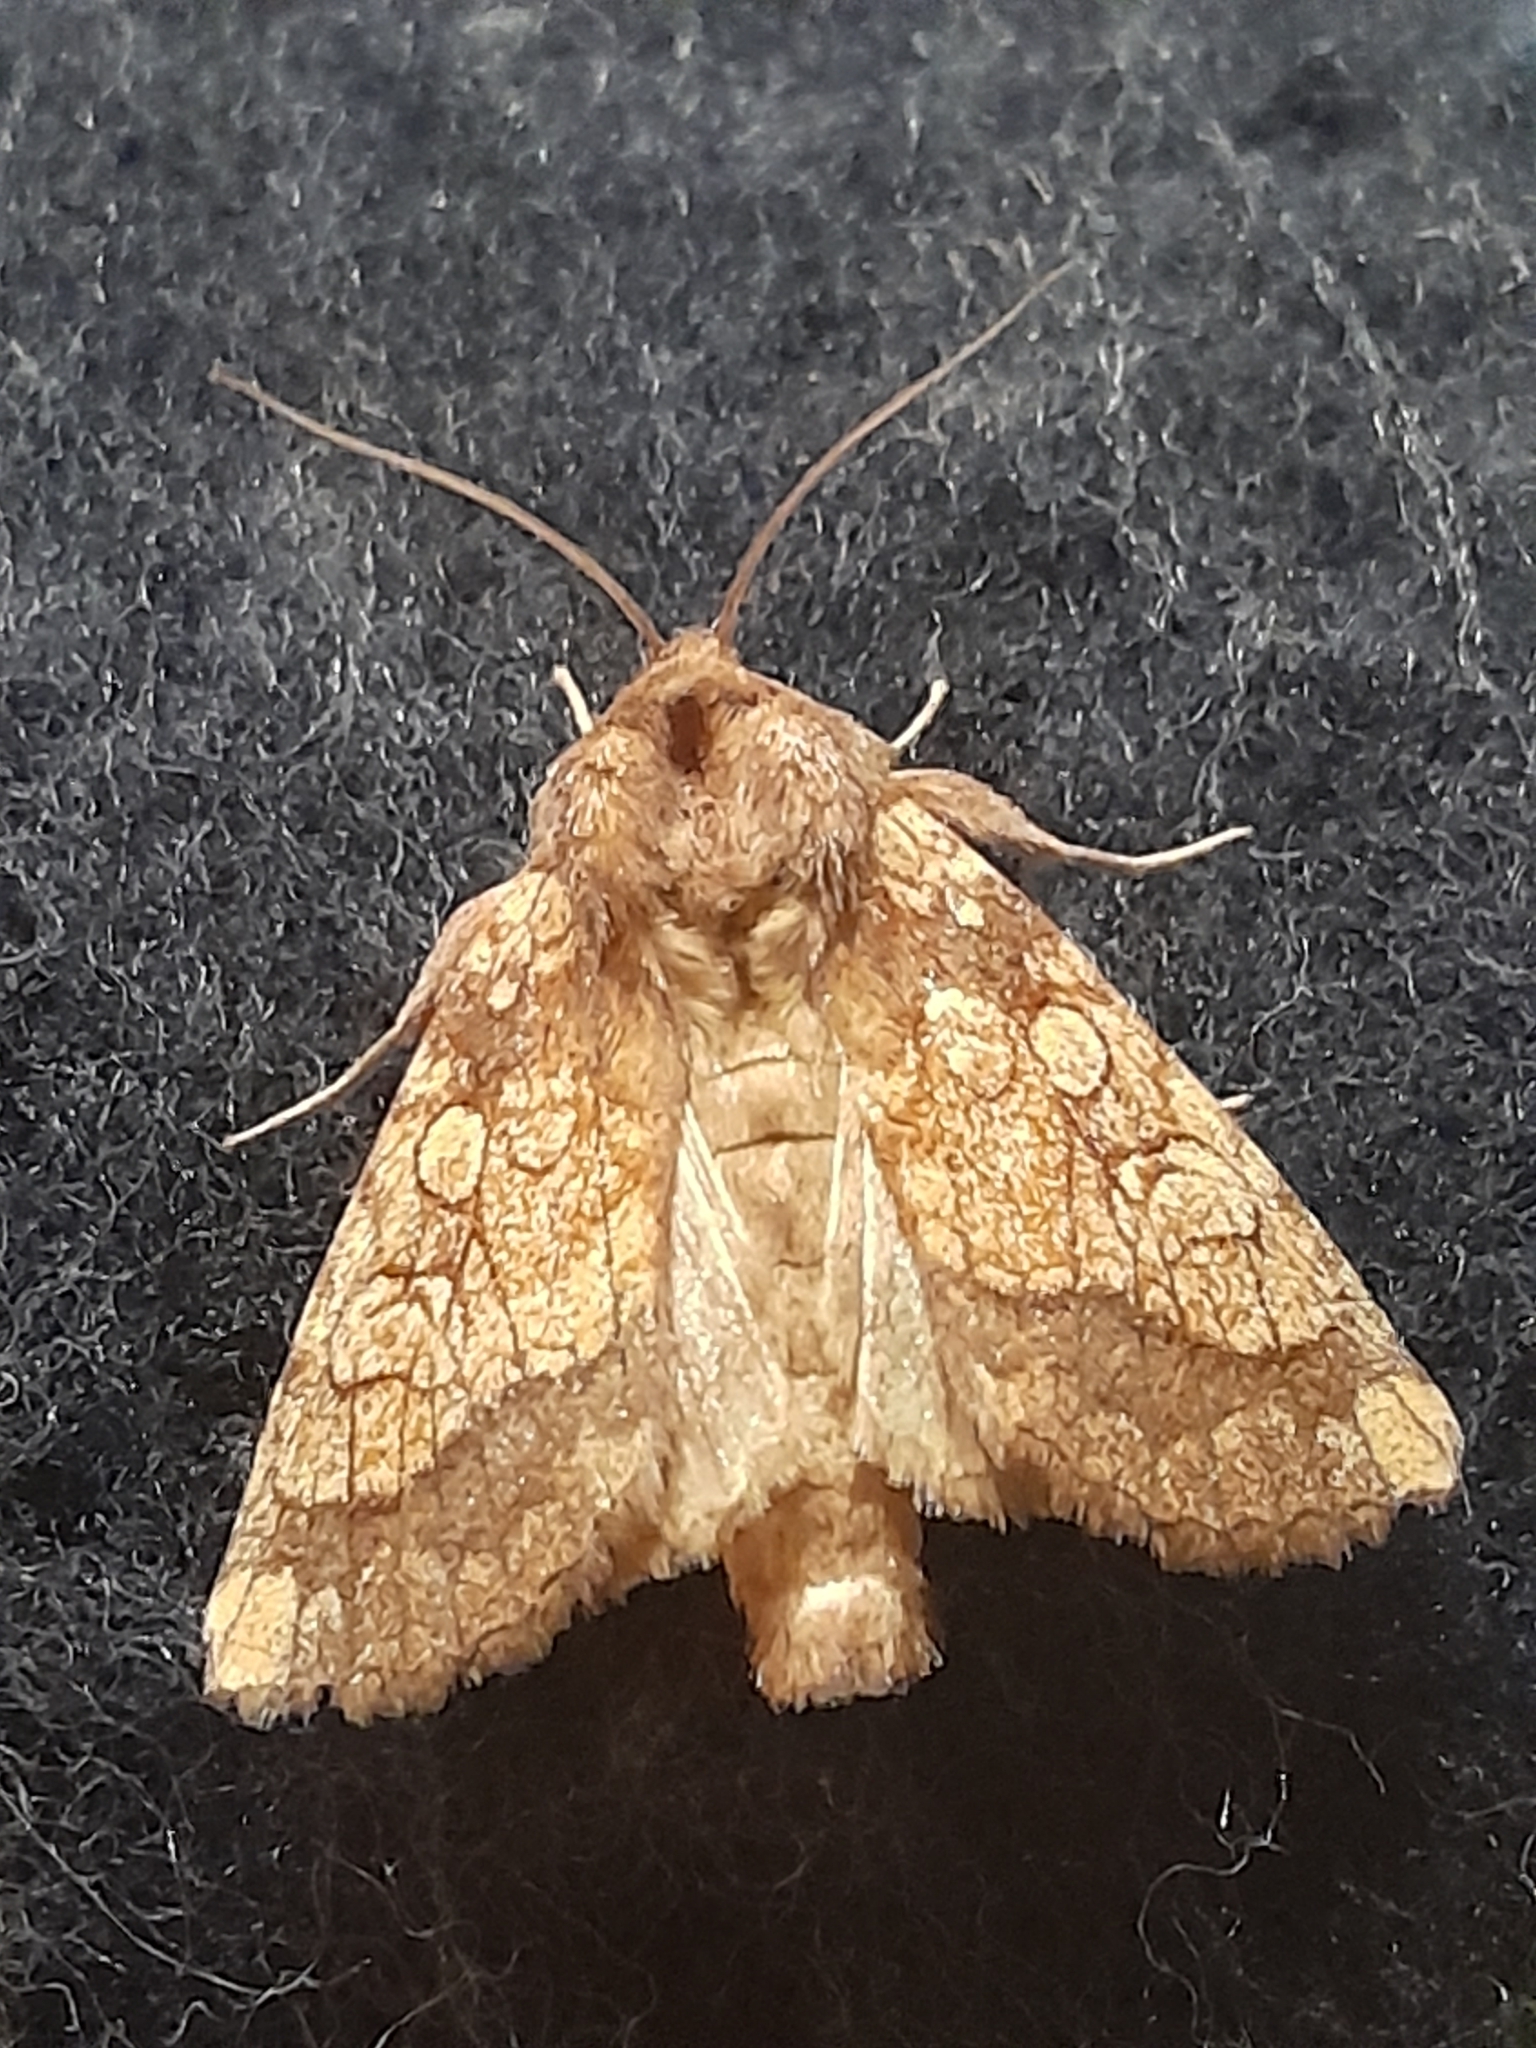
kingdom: Animalia
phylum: Arthropoda
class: Insecta
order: Lepidoptera
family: Noctuidae
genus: Gortyna
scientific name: Gortyna flavago
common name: Frosted orange
